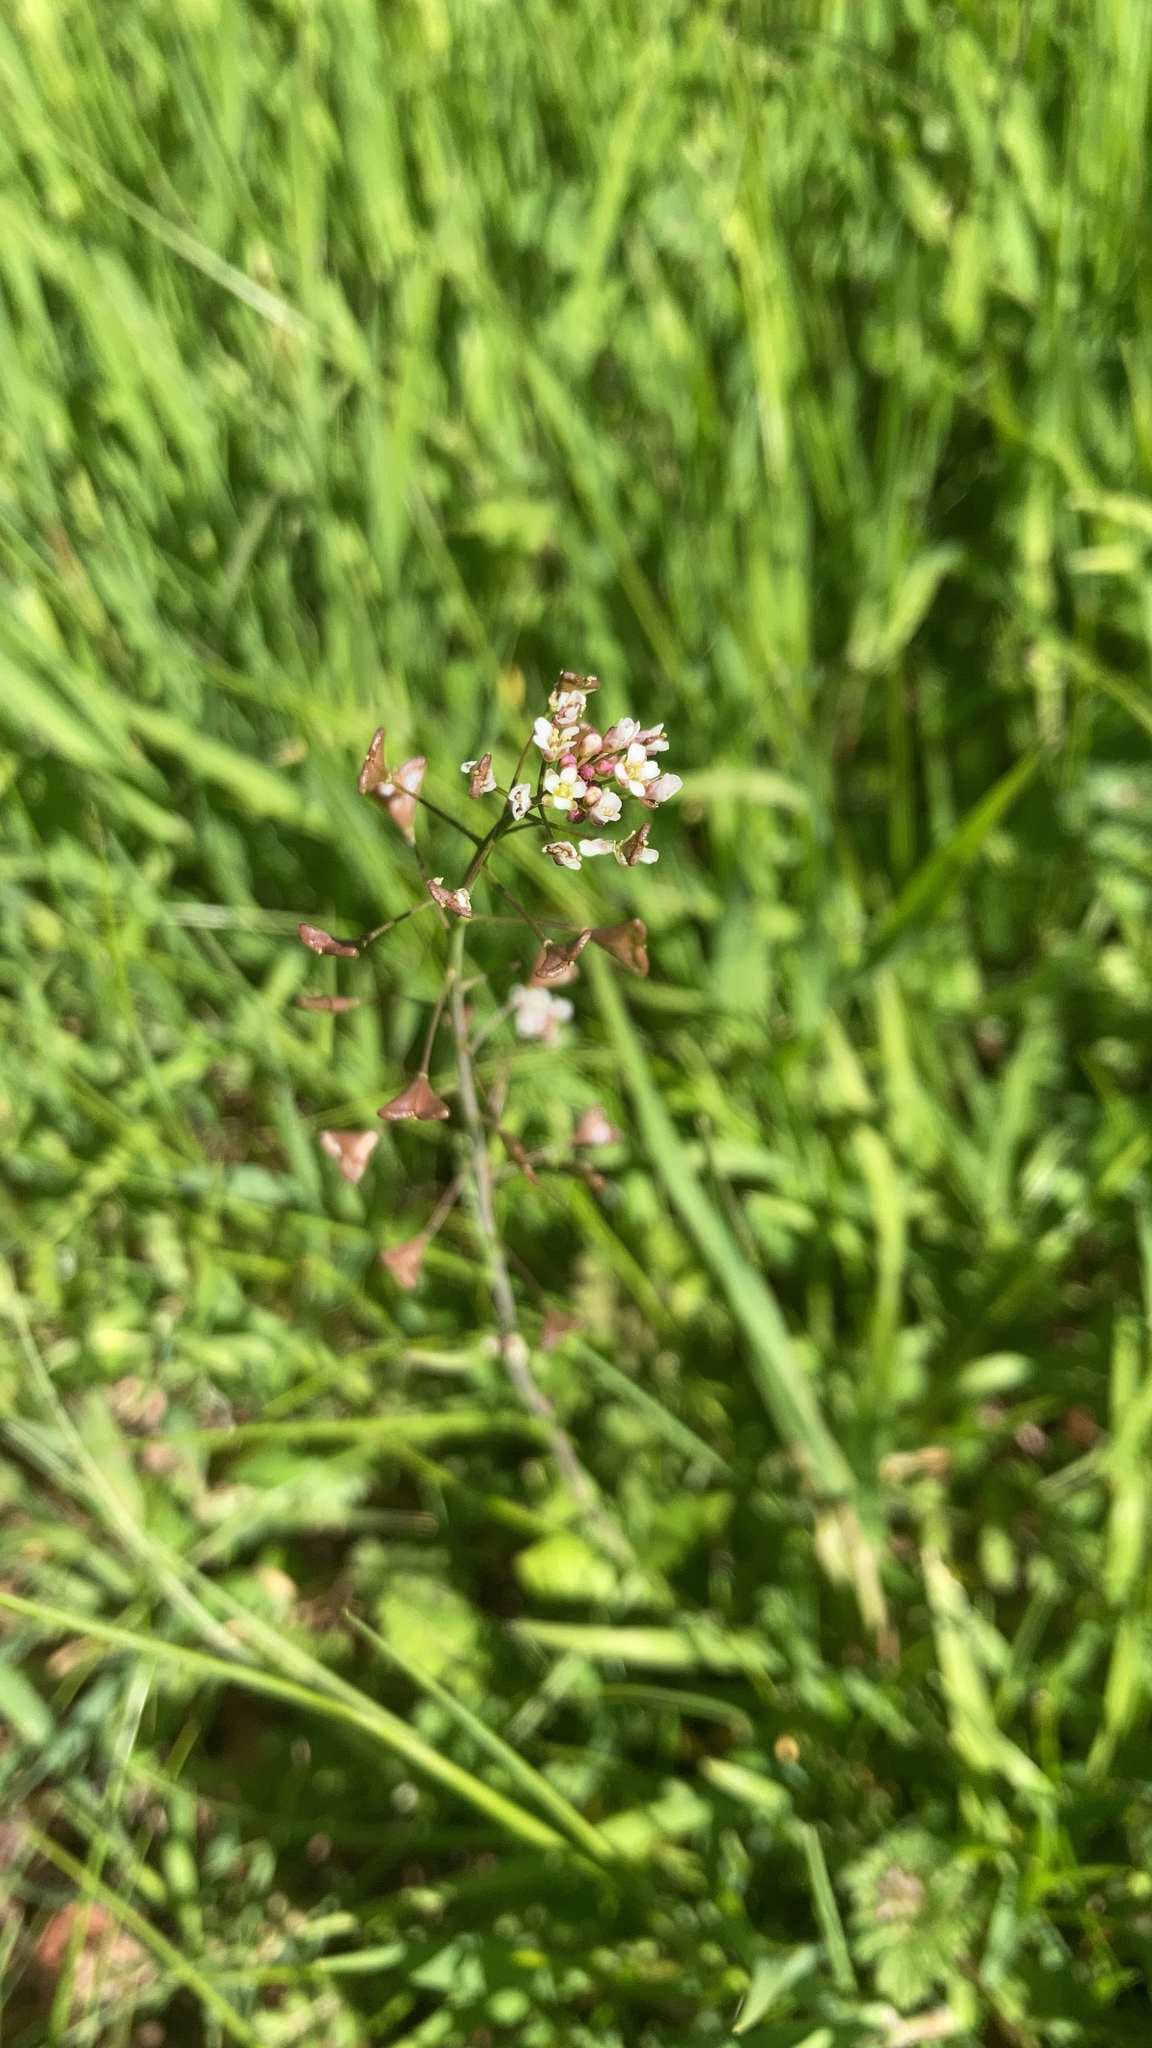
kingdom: Plantae
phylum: Tracheophyta
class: Magnoliopsida
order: Brassicales
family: Brassicaceae
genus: Capsella
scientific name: Capsella bursa-pastoris
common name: Shepherd's purse
